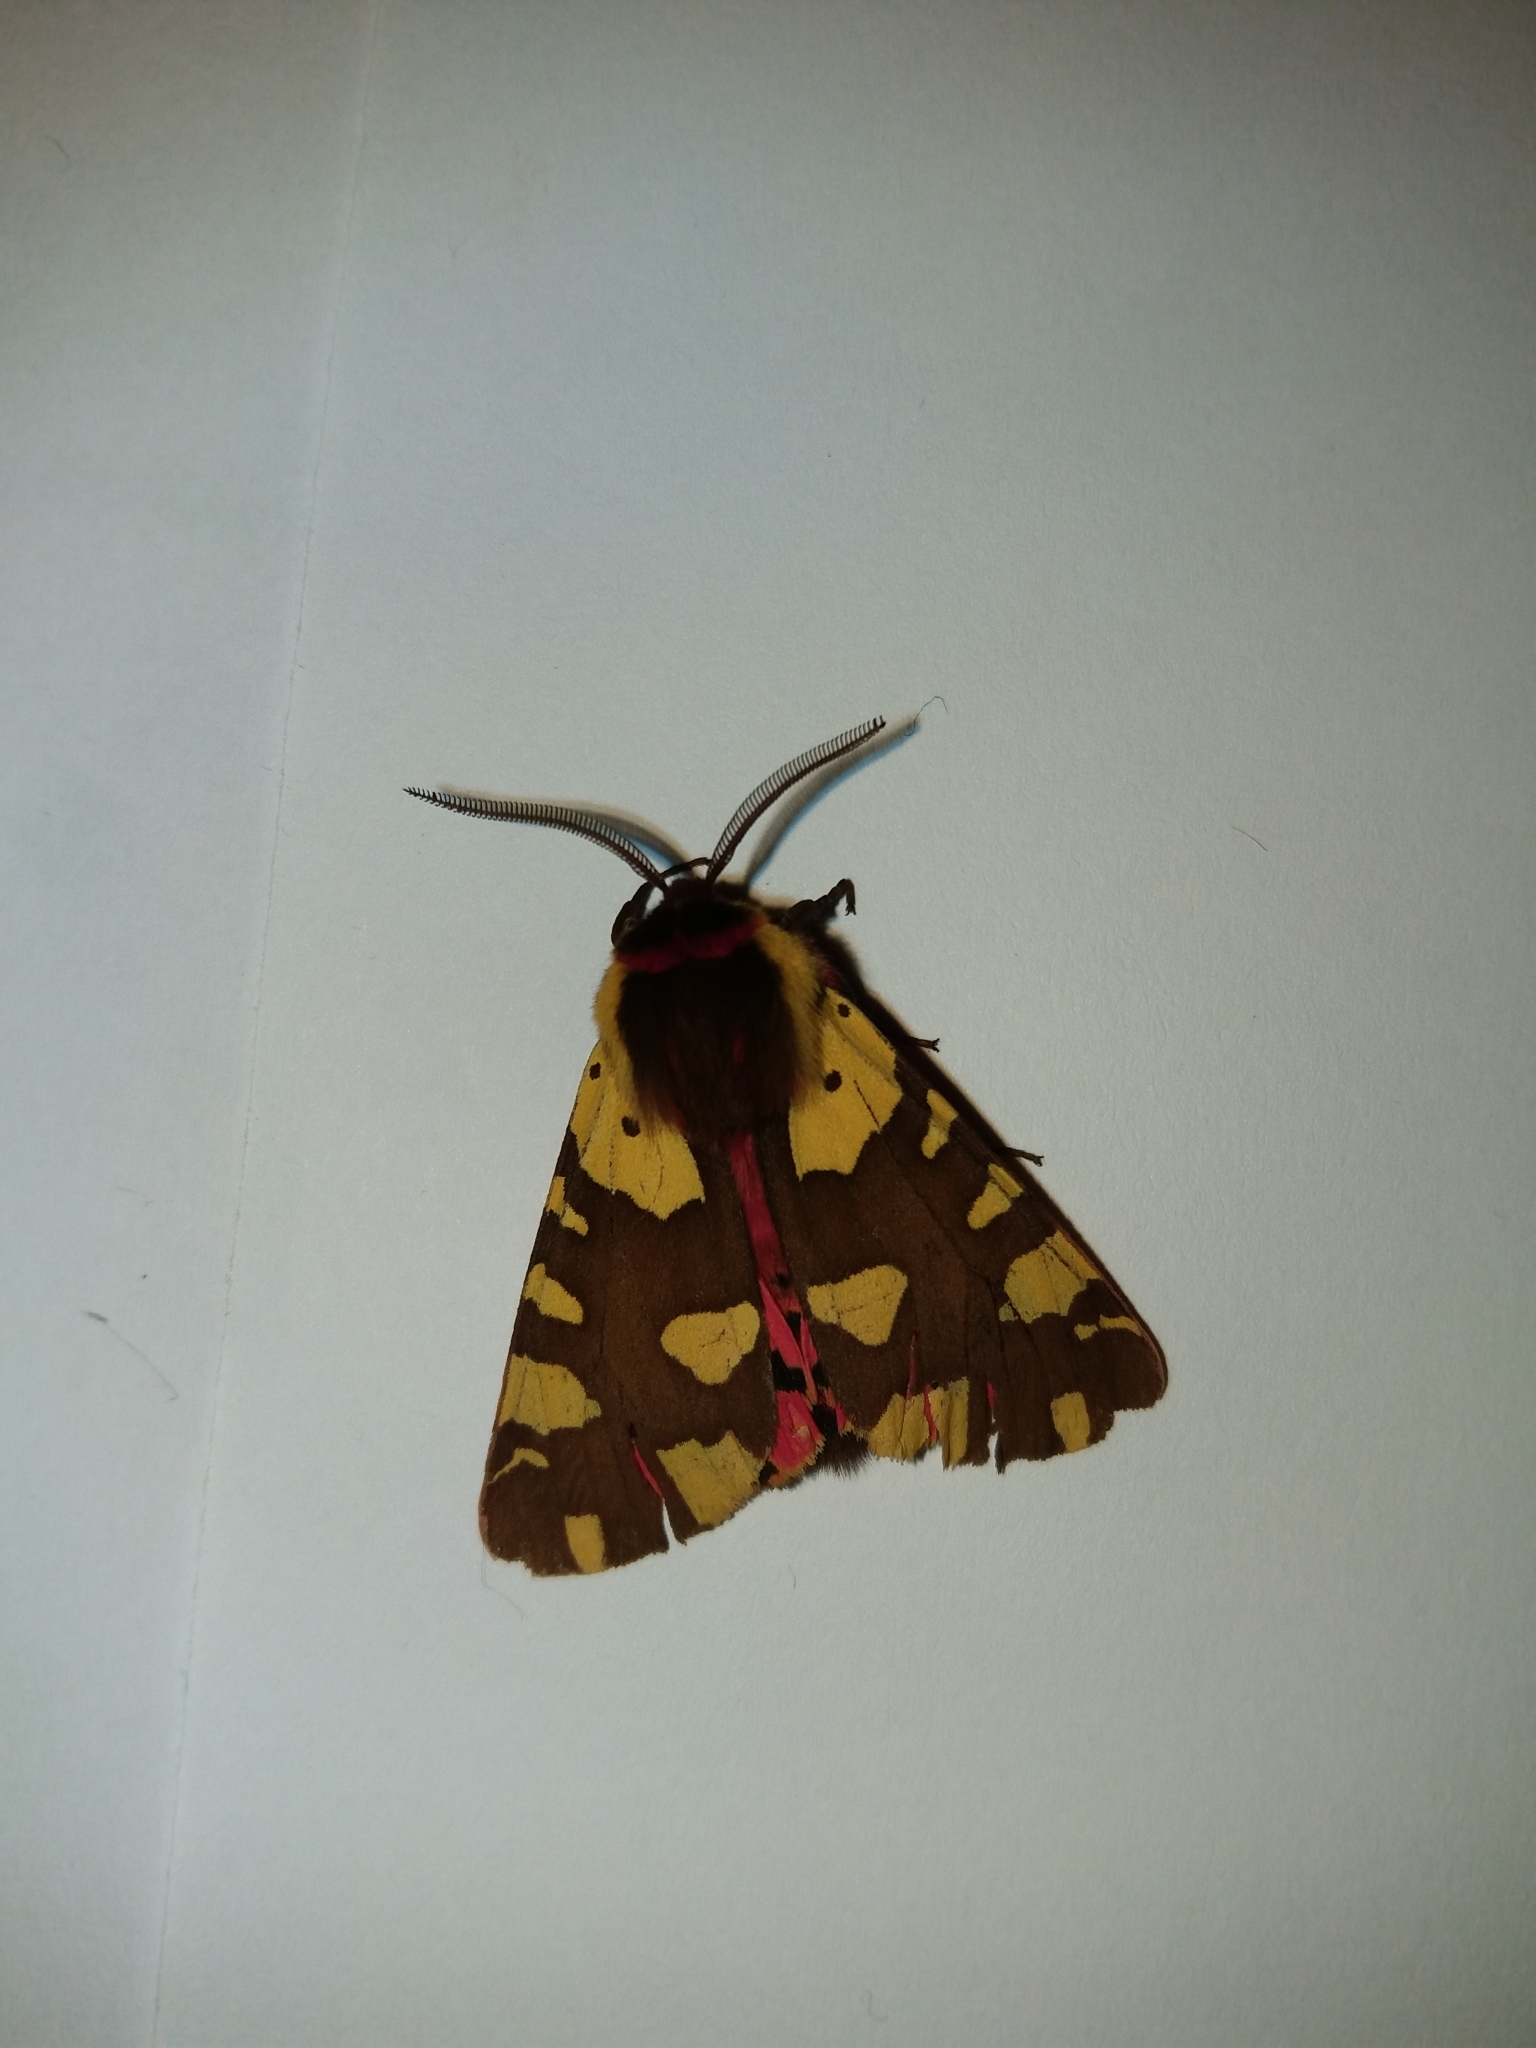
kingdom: Animalia
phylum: Arthropoda
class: Insecta
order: Lepidoptera
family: Erebidae
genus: Arctia
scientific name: Arctia dido
